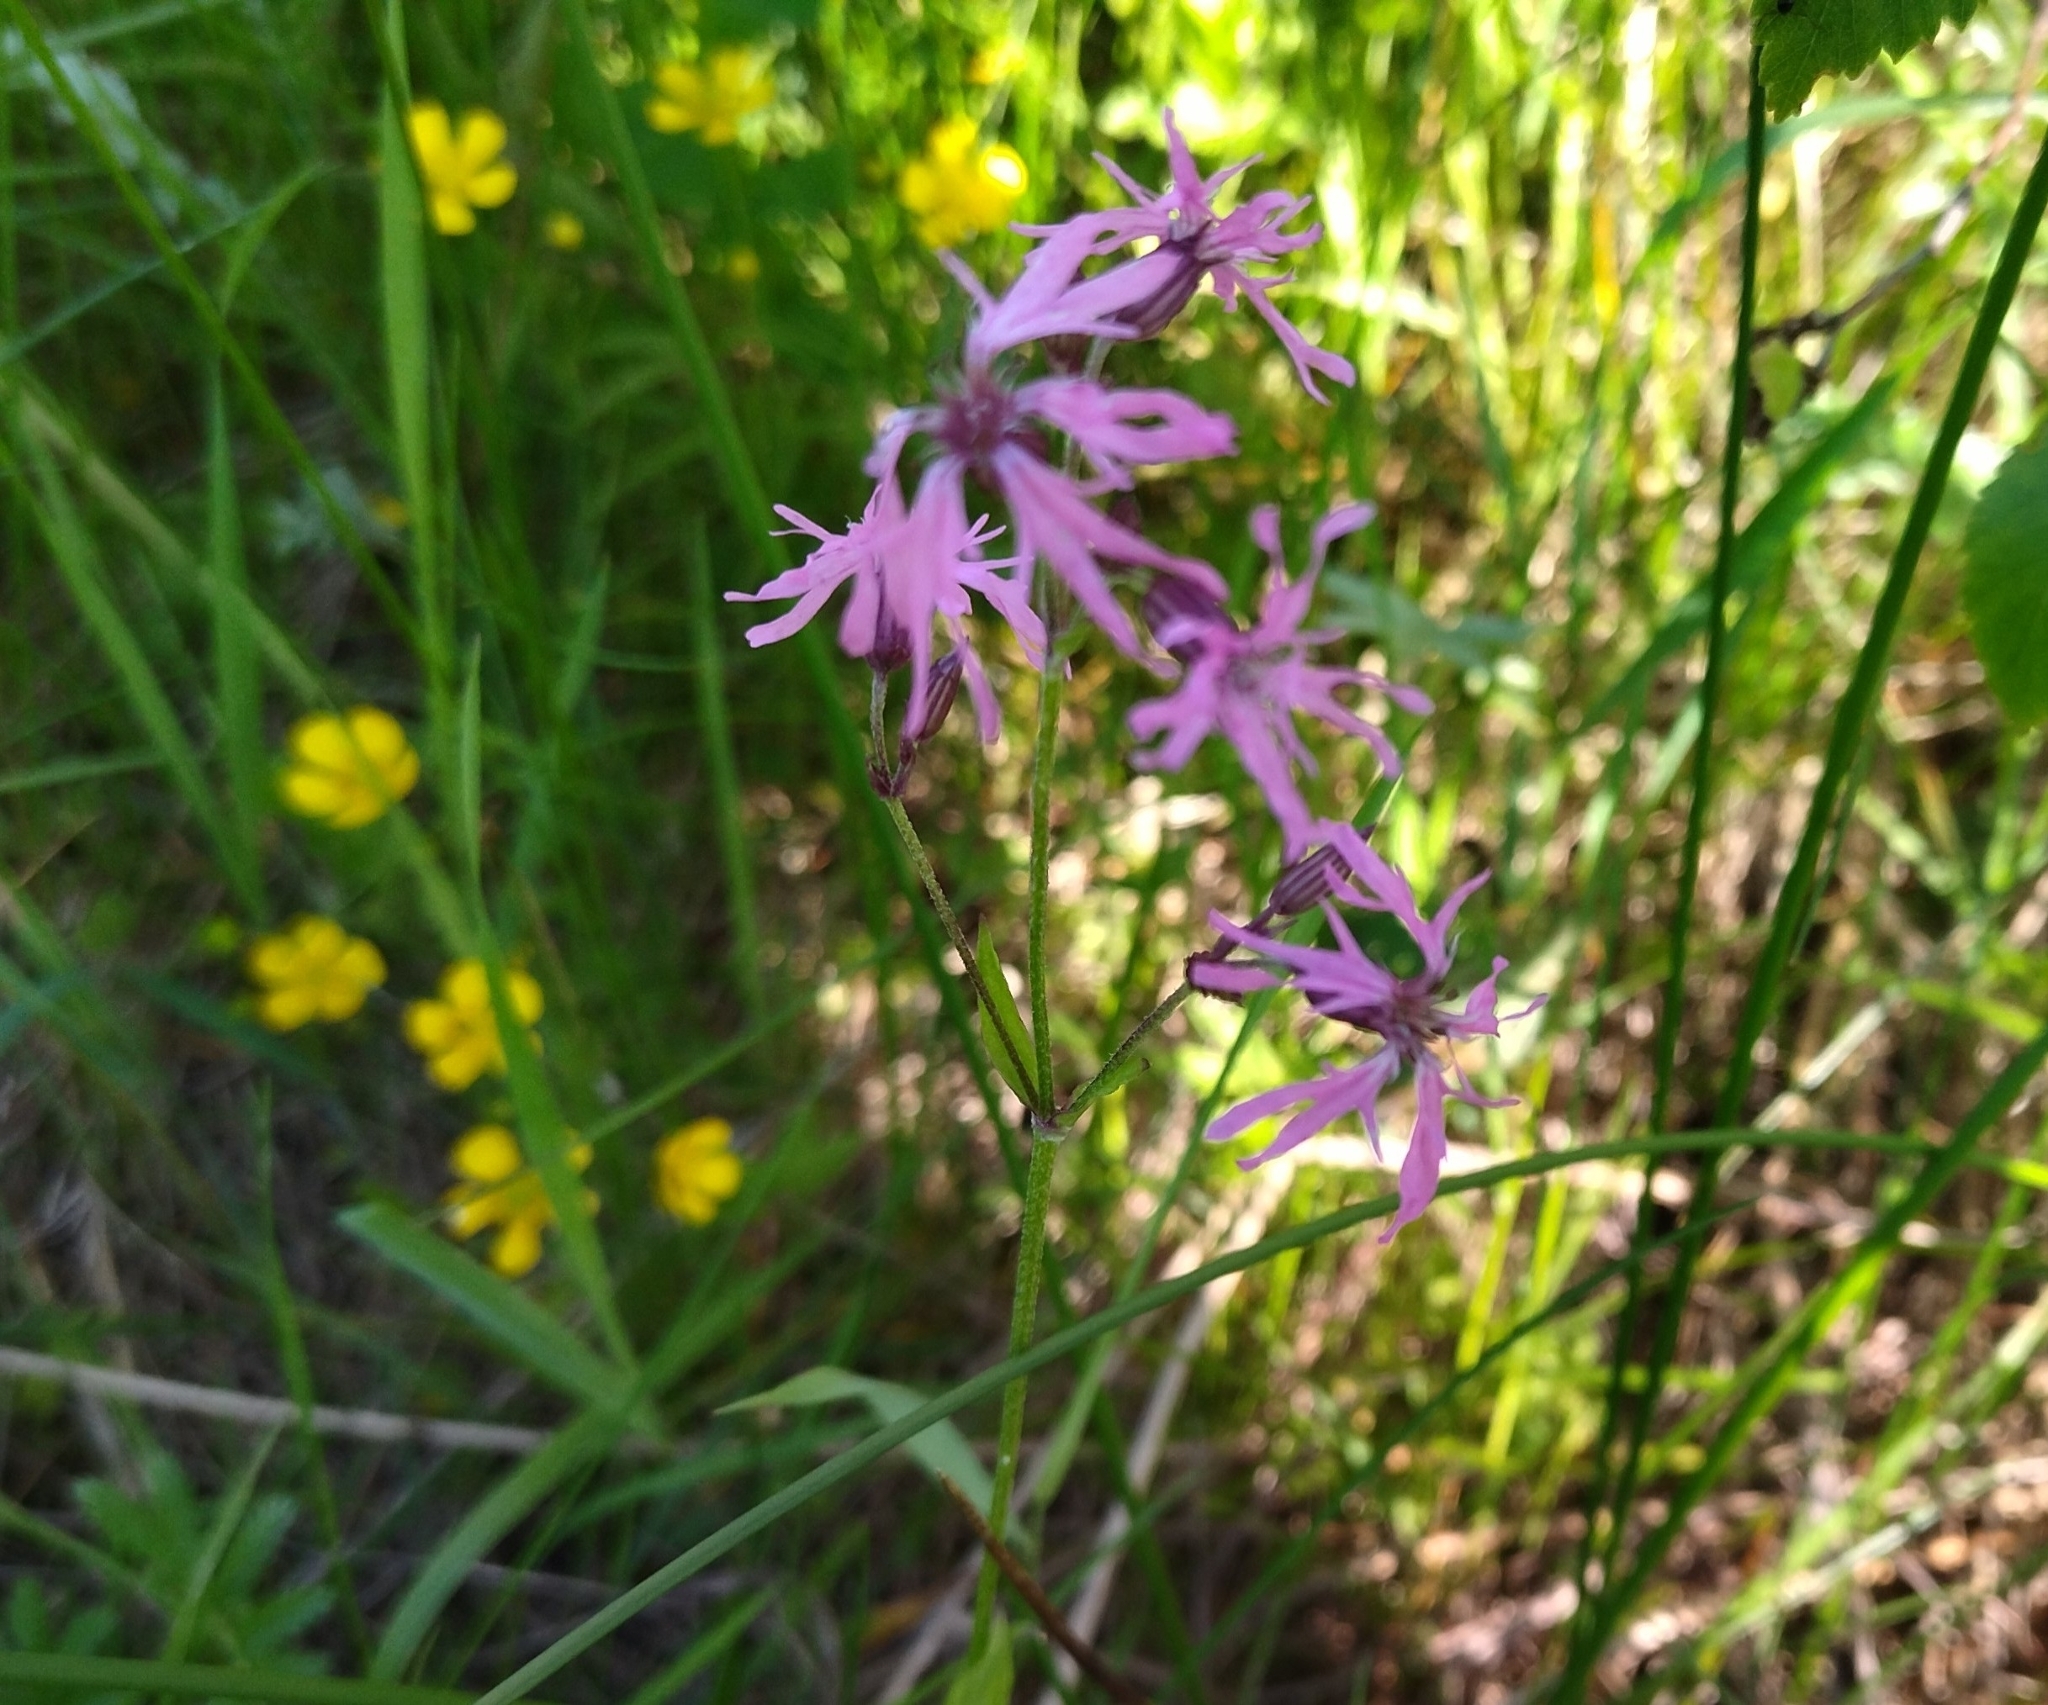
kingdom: Plantae
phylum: Tracheophyta
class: Magnoliopsida
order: Caryophyllales
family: Caryophyllaceae
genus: Silene
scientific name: Silene flos-cuculi
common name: Ragged-robin
